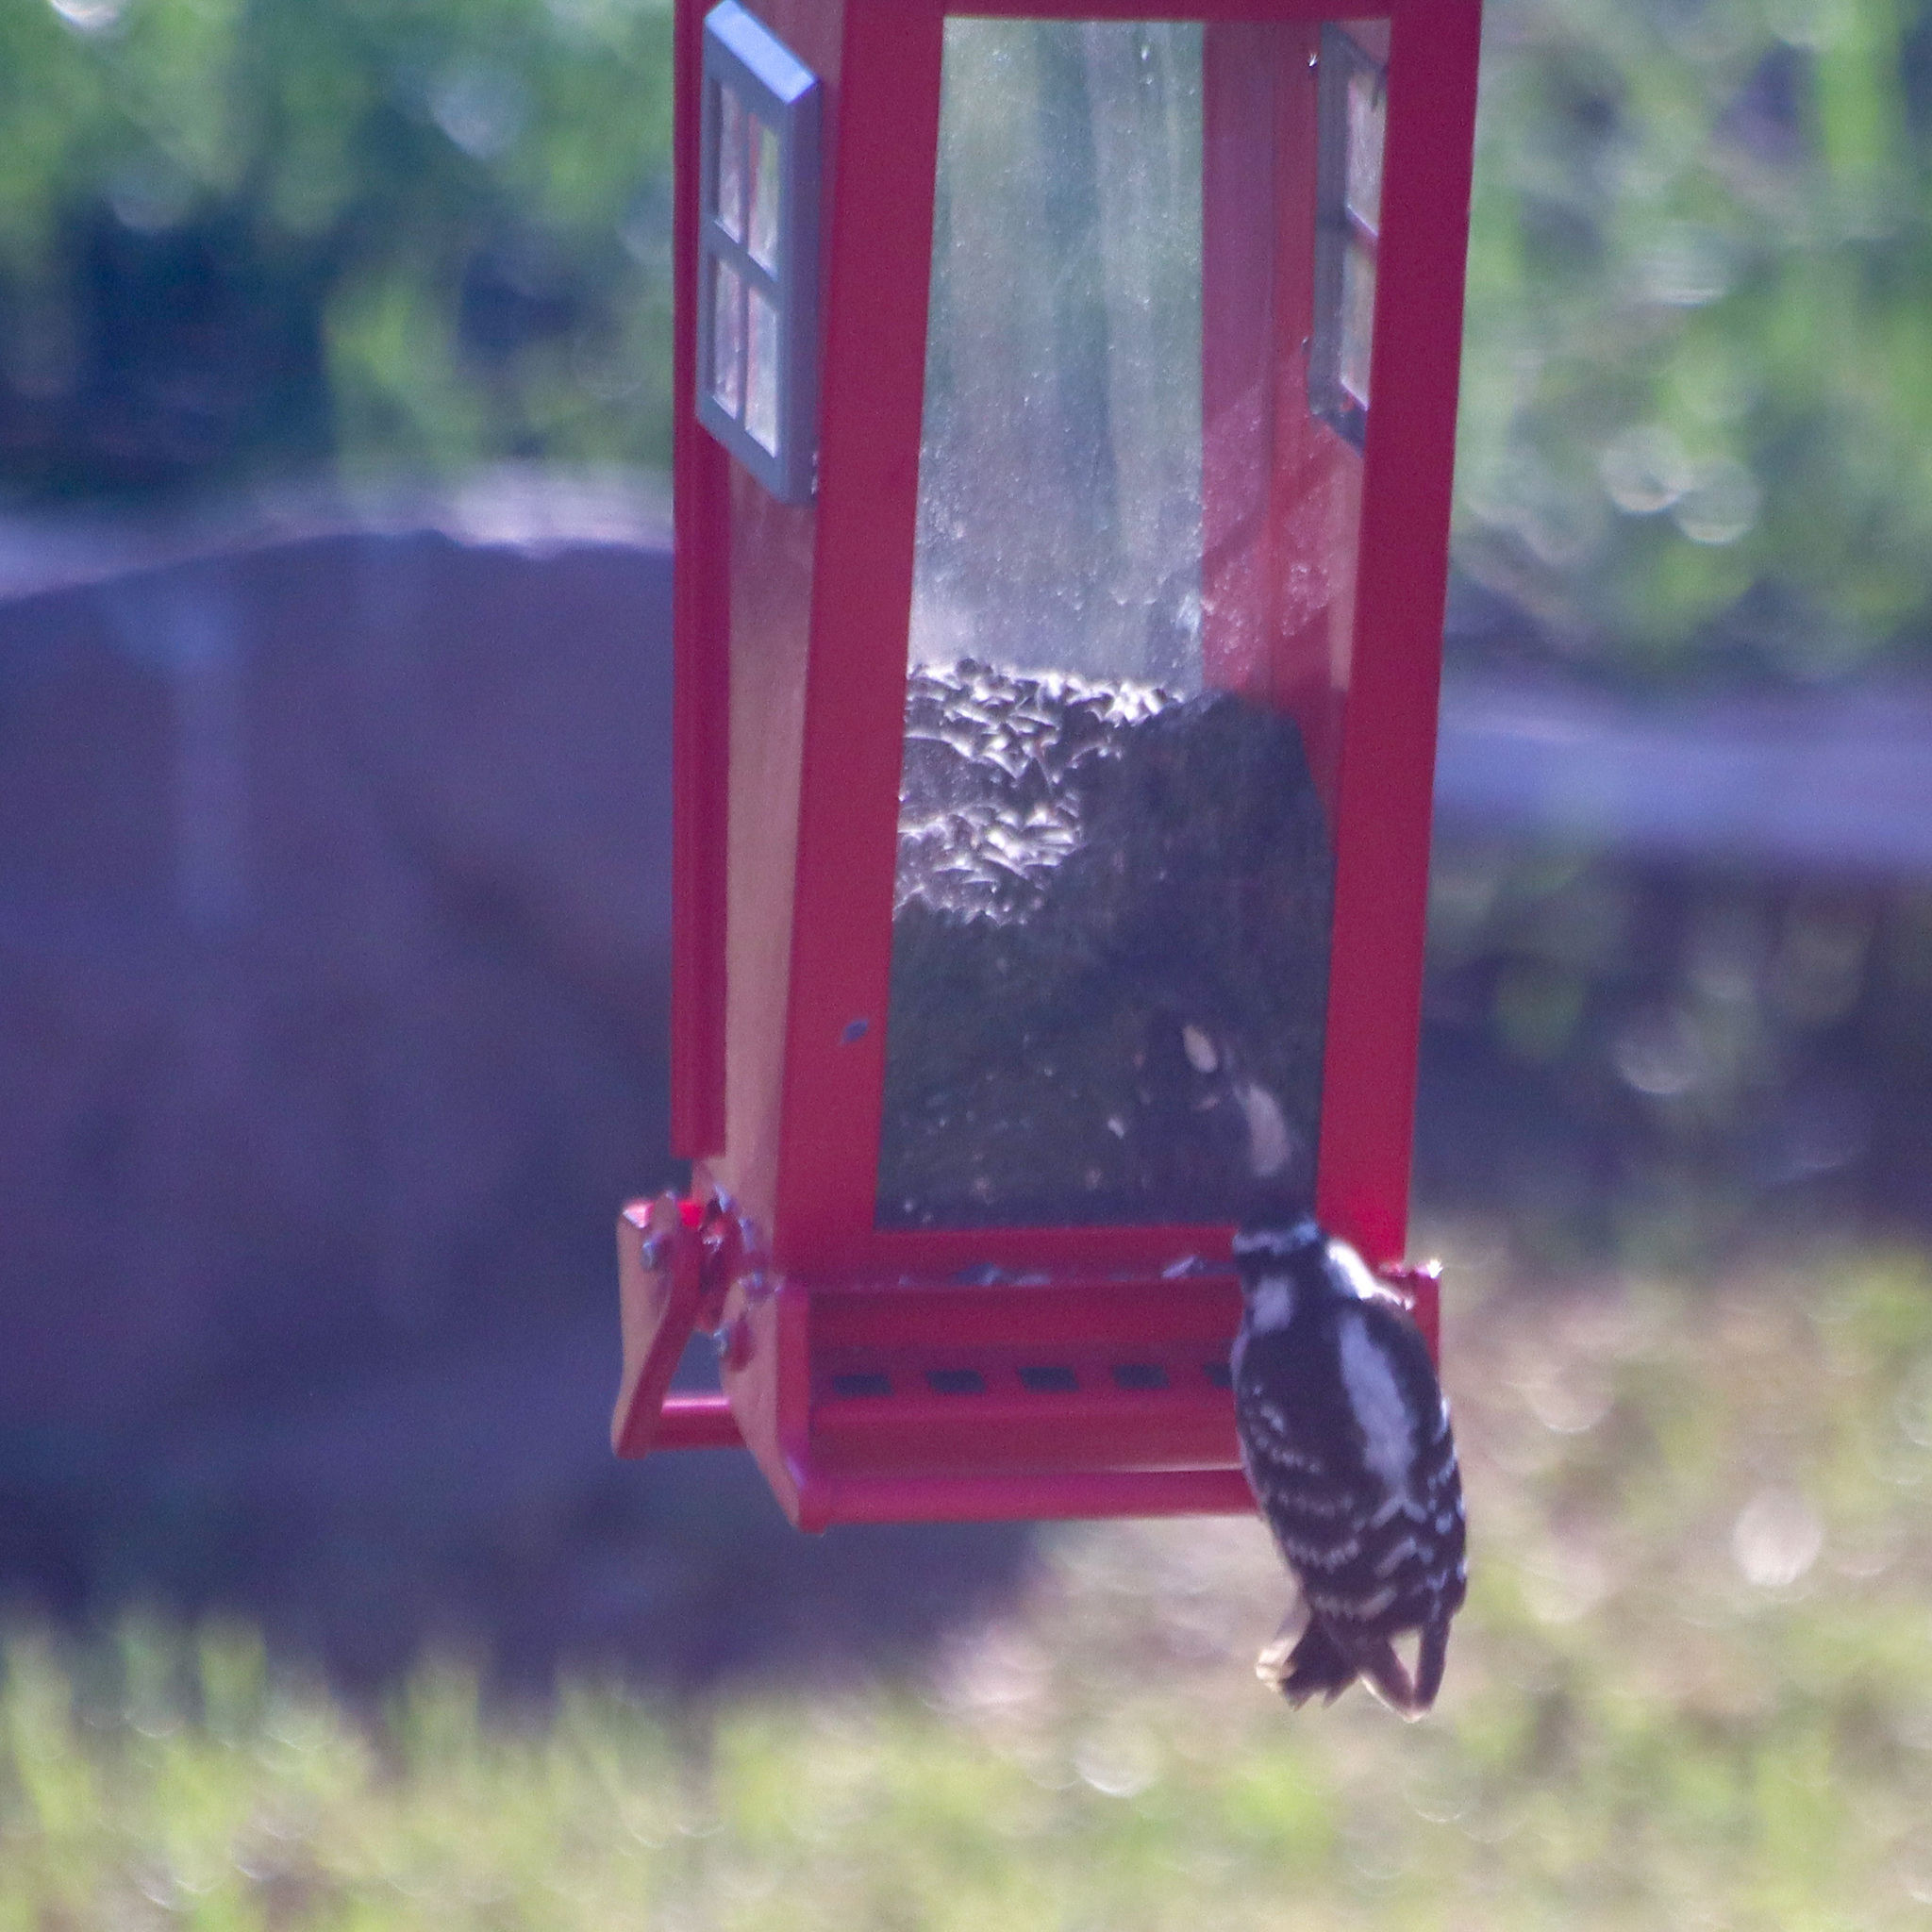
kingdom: Animalia
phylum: Chordata
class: Aves
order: Piciformes
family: Picidae
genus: Dryobates
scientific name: Dryobates pubescens
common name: Downy woodpecker
